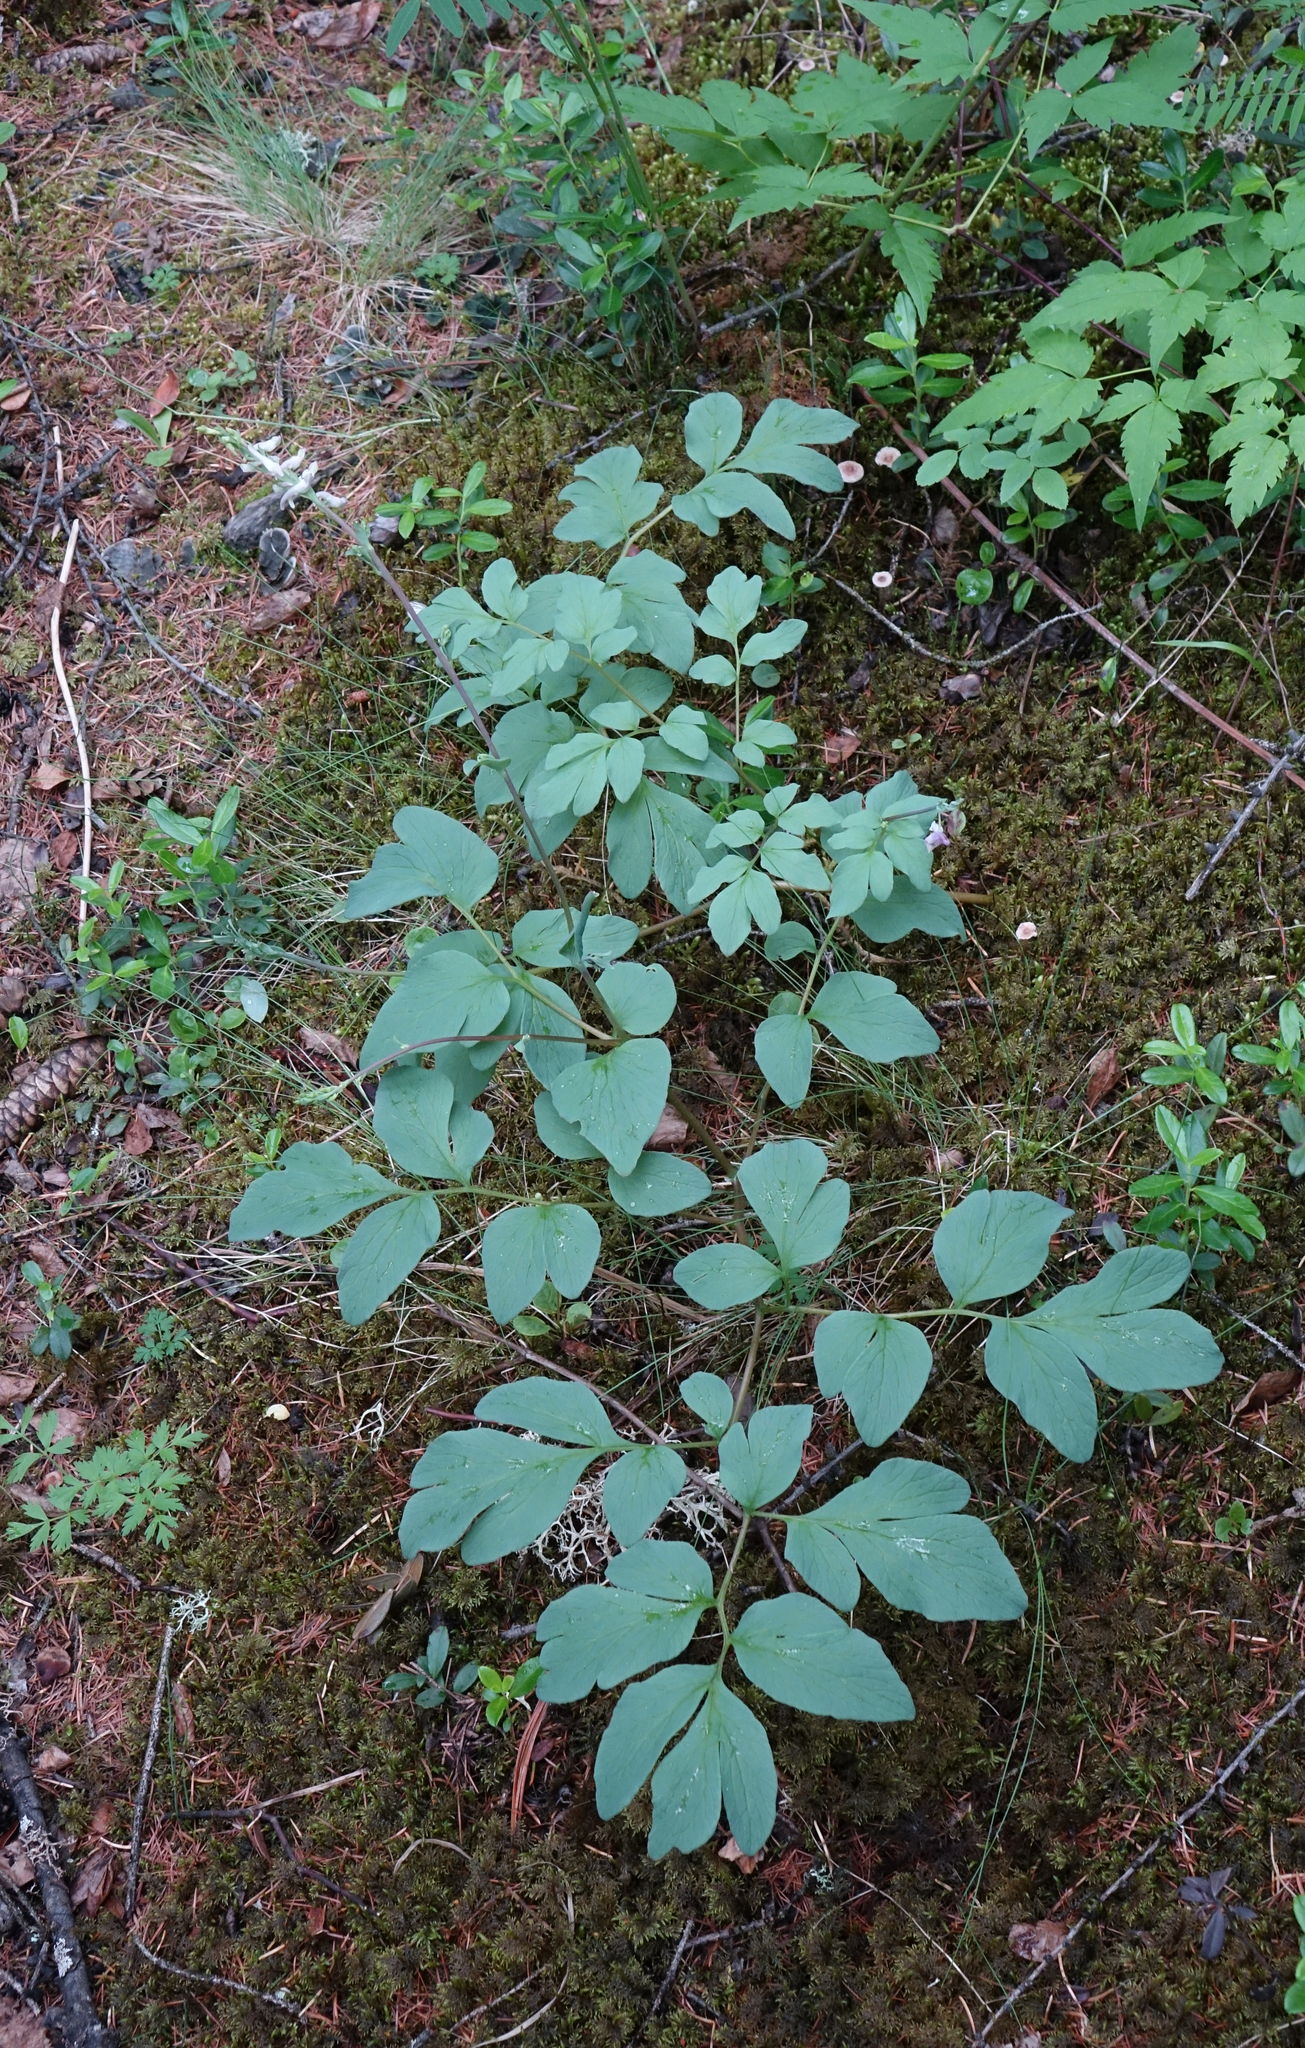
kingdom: Plantae
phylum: Tracheophyta
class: Magnoliopsida
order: Ranunculales
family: Papaveraceae
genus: Corydalis
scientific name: Corydalis paeoniifolia
